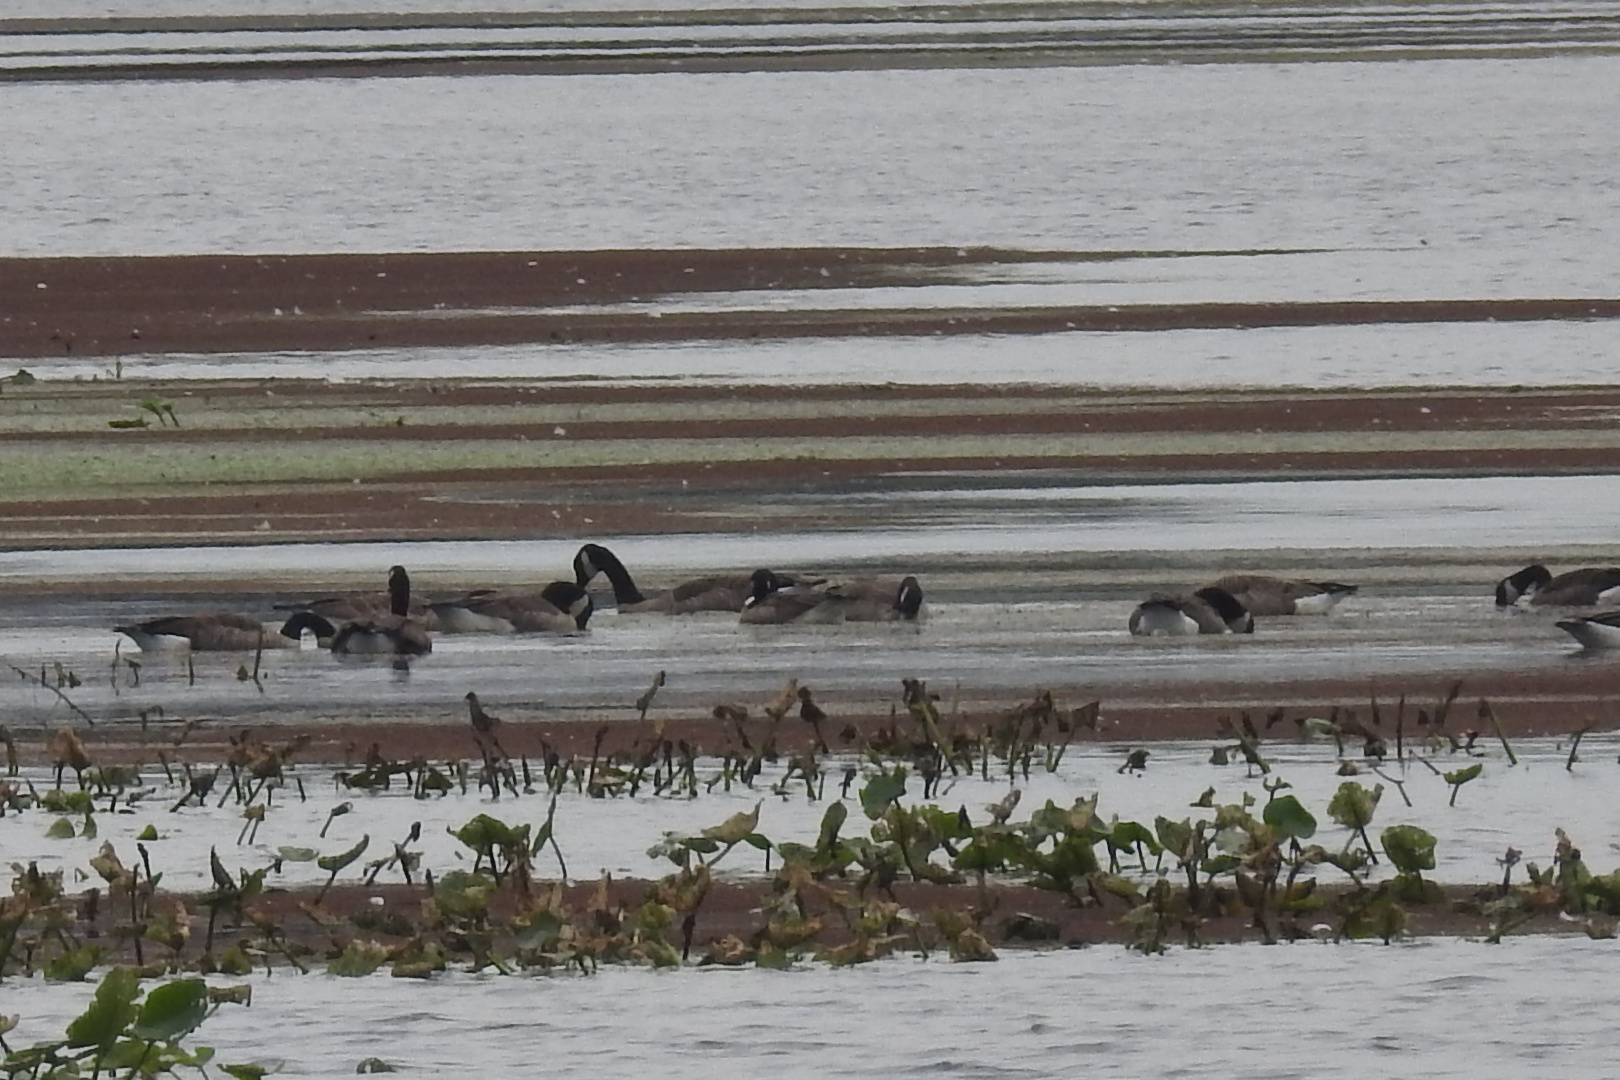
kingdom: Animalia
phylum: Chordata
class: Aves
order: Anseriformes
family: Anatidae
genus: Branta
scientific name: Branta canadensis
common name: Canada goose
